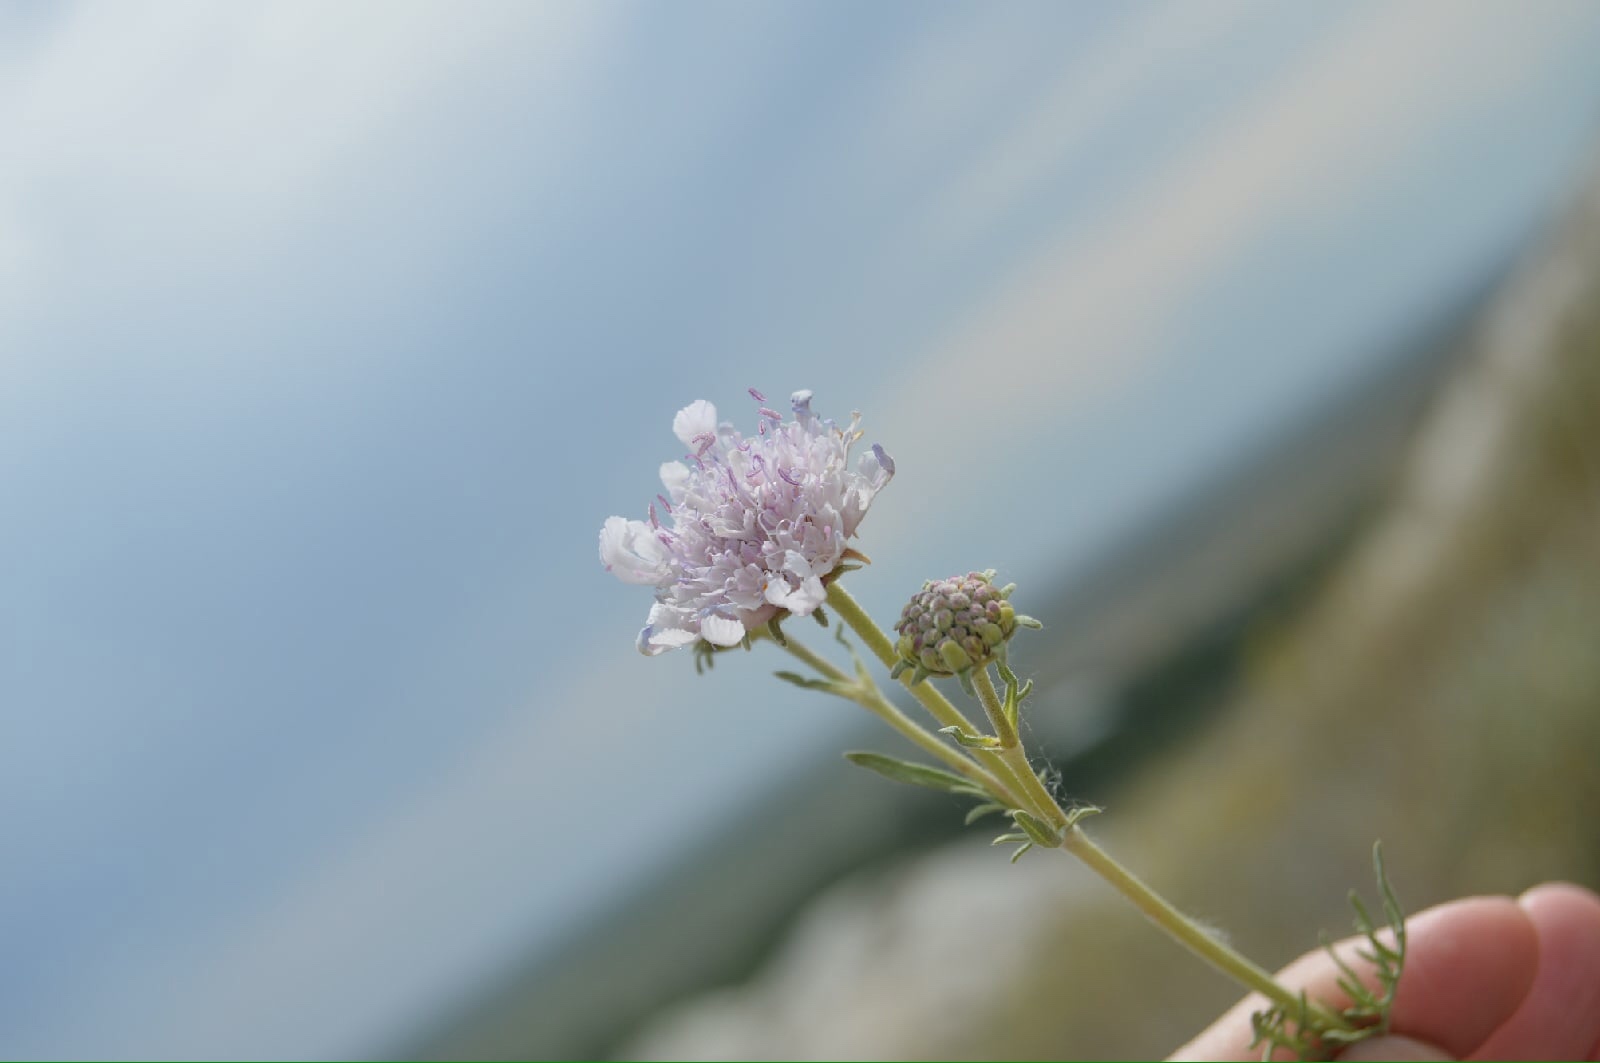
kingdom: Plantae
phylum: Tracheophyta
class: Magnoliopsida
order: Dipsacales
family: Caprifoliaceae
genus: Lomelosia
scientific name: Lomelosia isetensis
